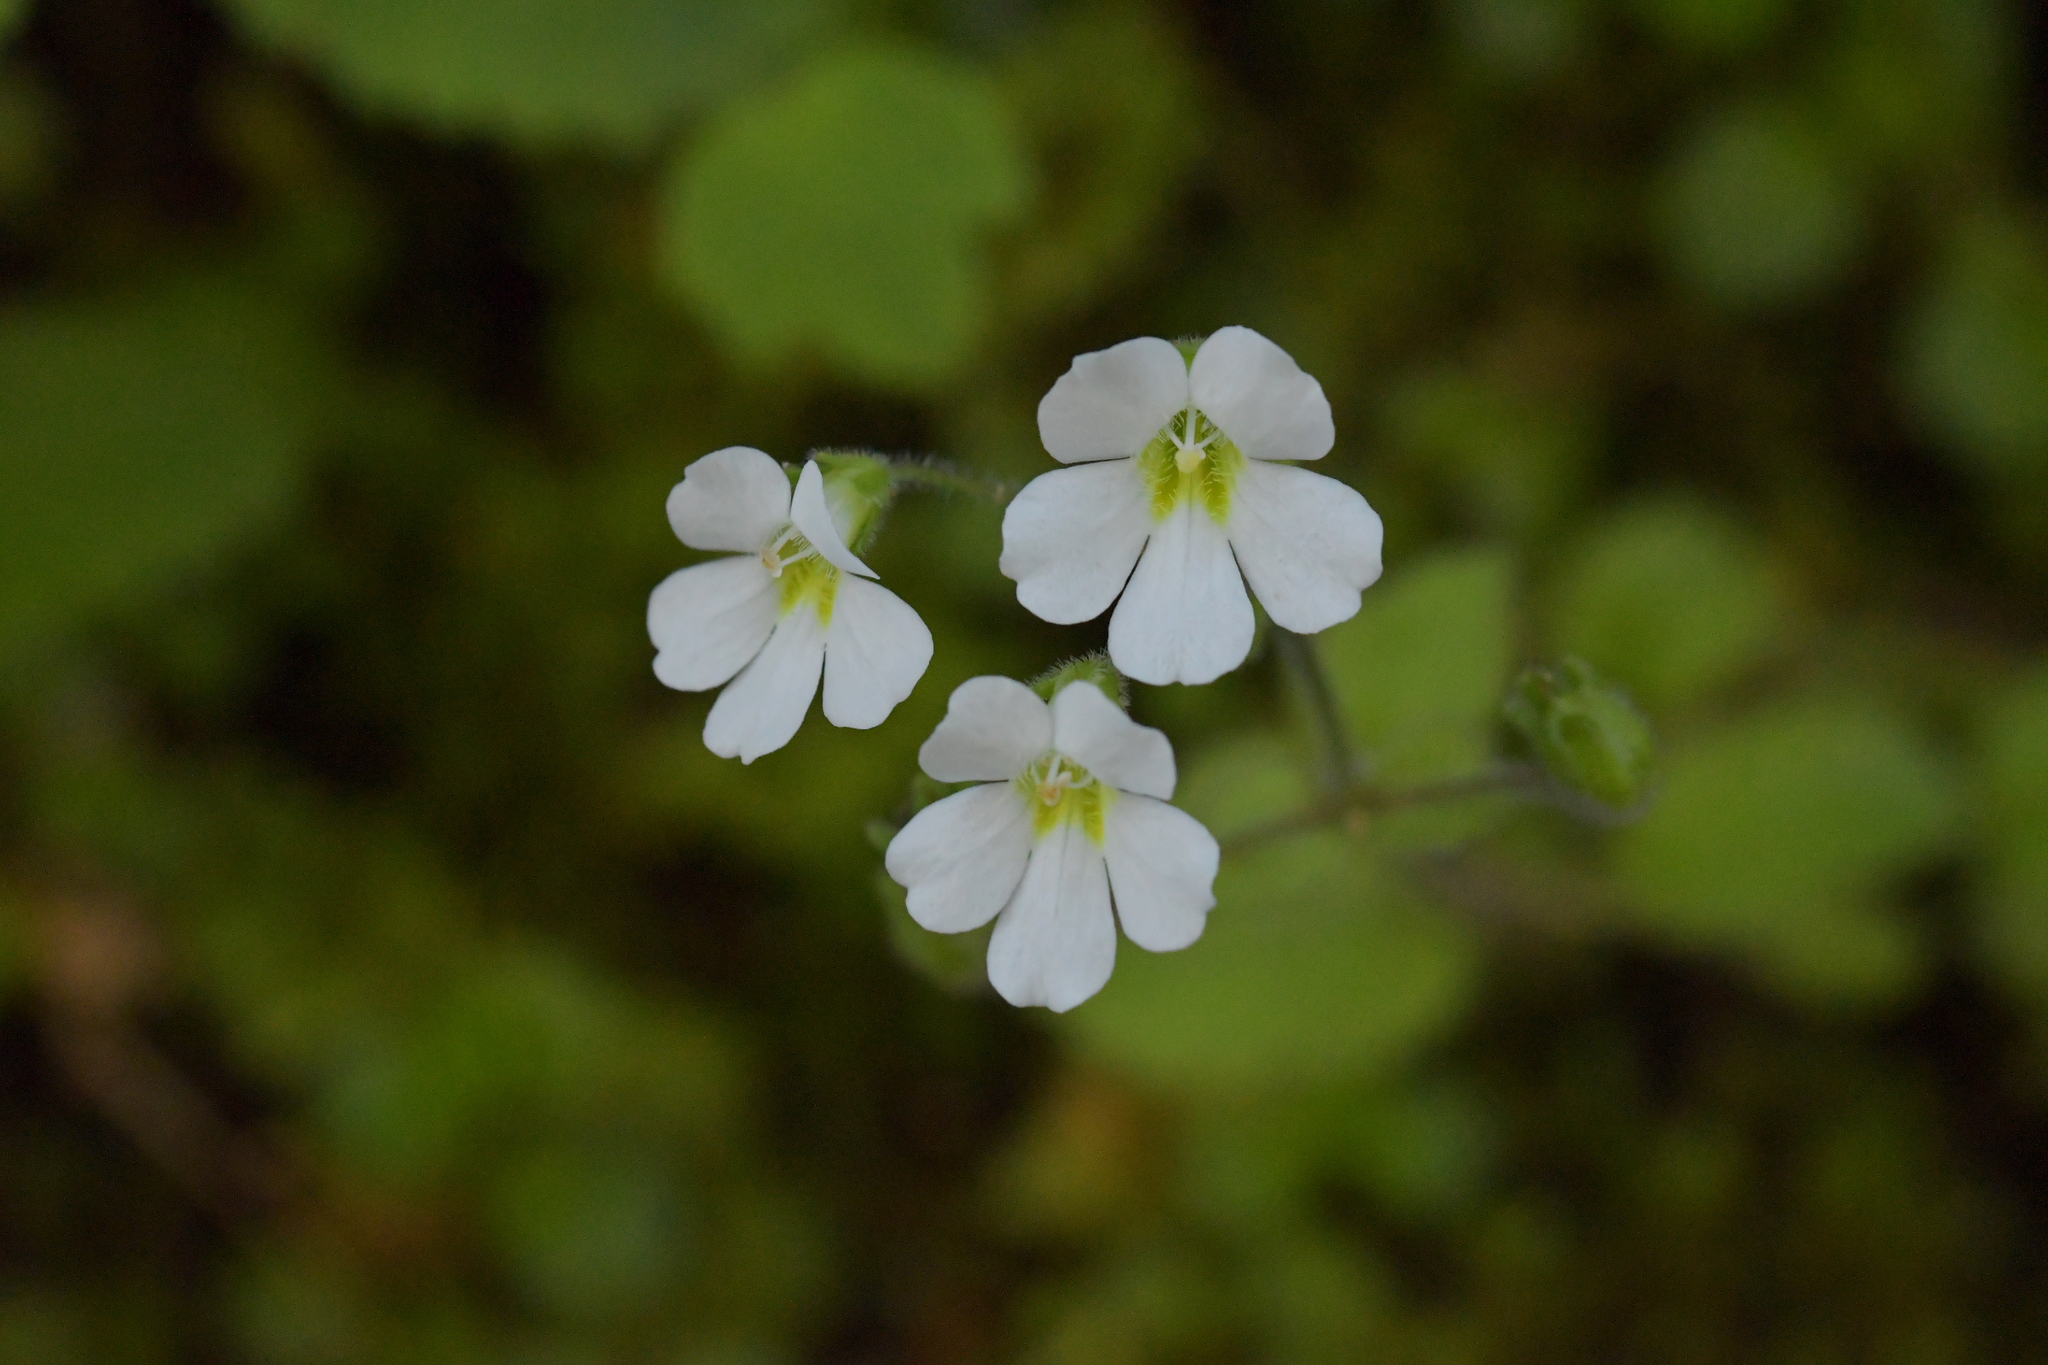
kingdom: Plantae
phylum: Tracheophyta
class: Magnoliopsida
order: Lamiales
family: Plantaginaceae
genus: Ourisia
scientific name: Ourisia crosbyi
